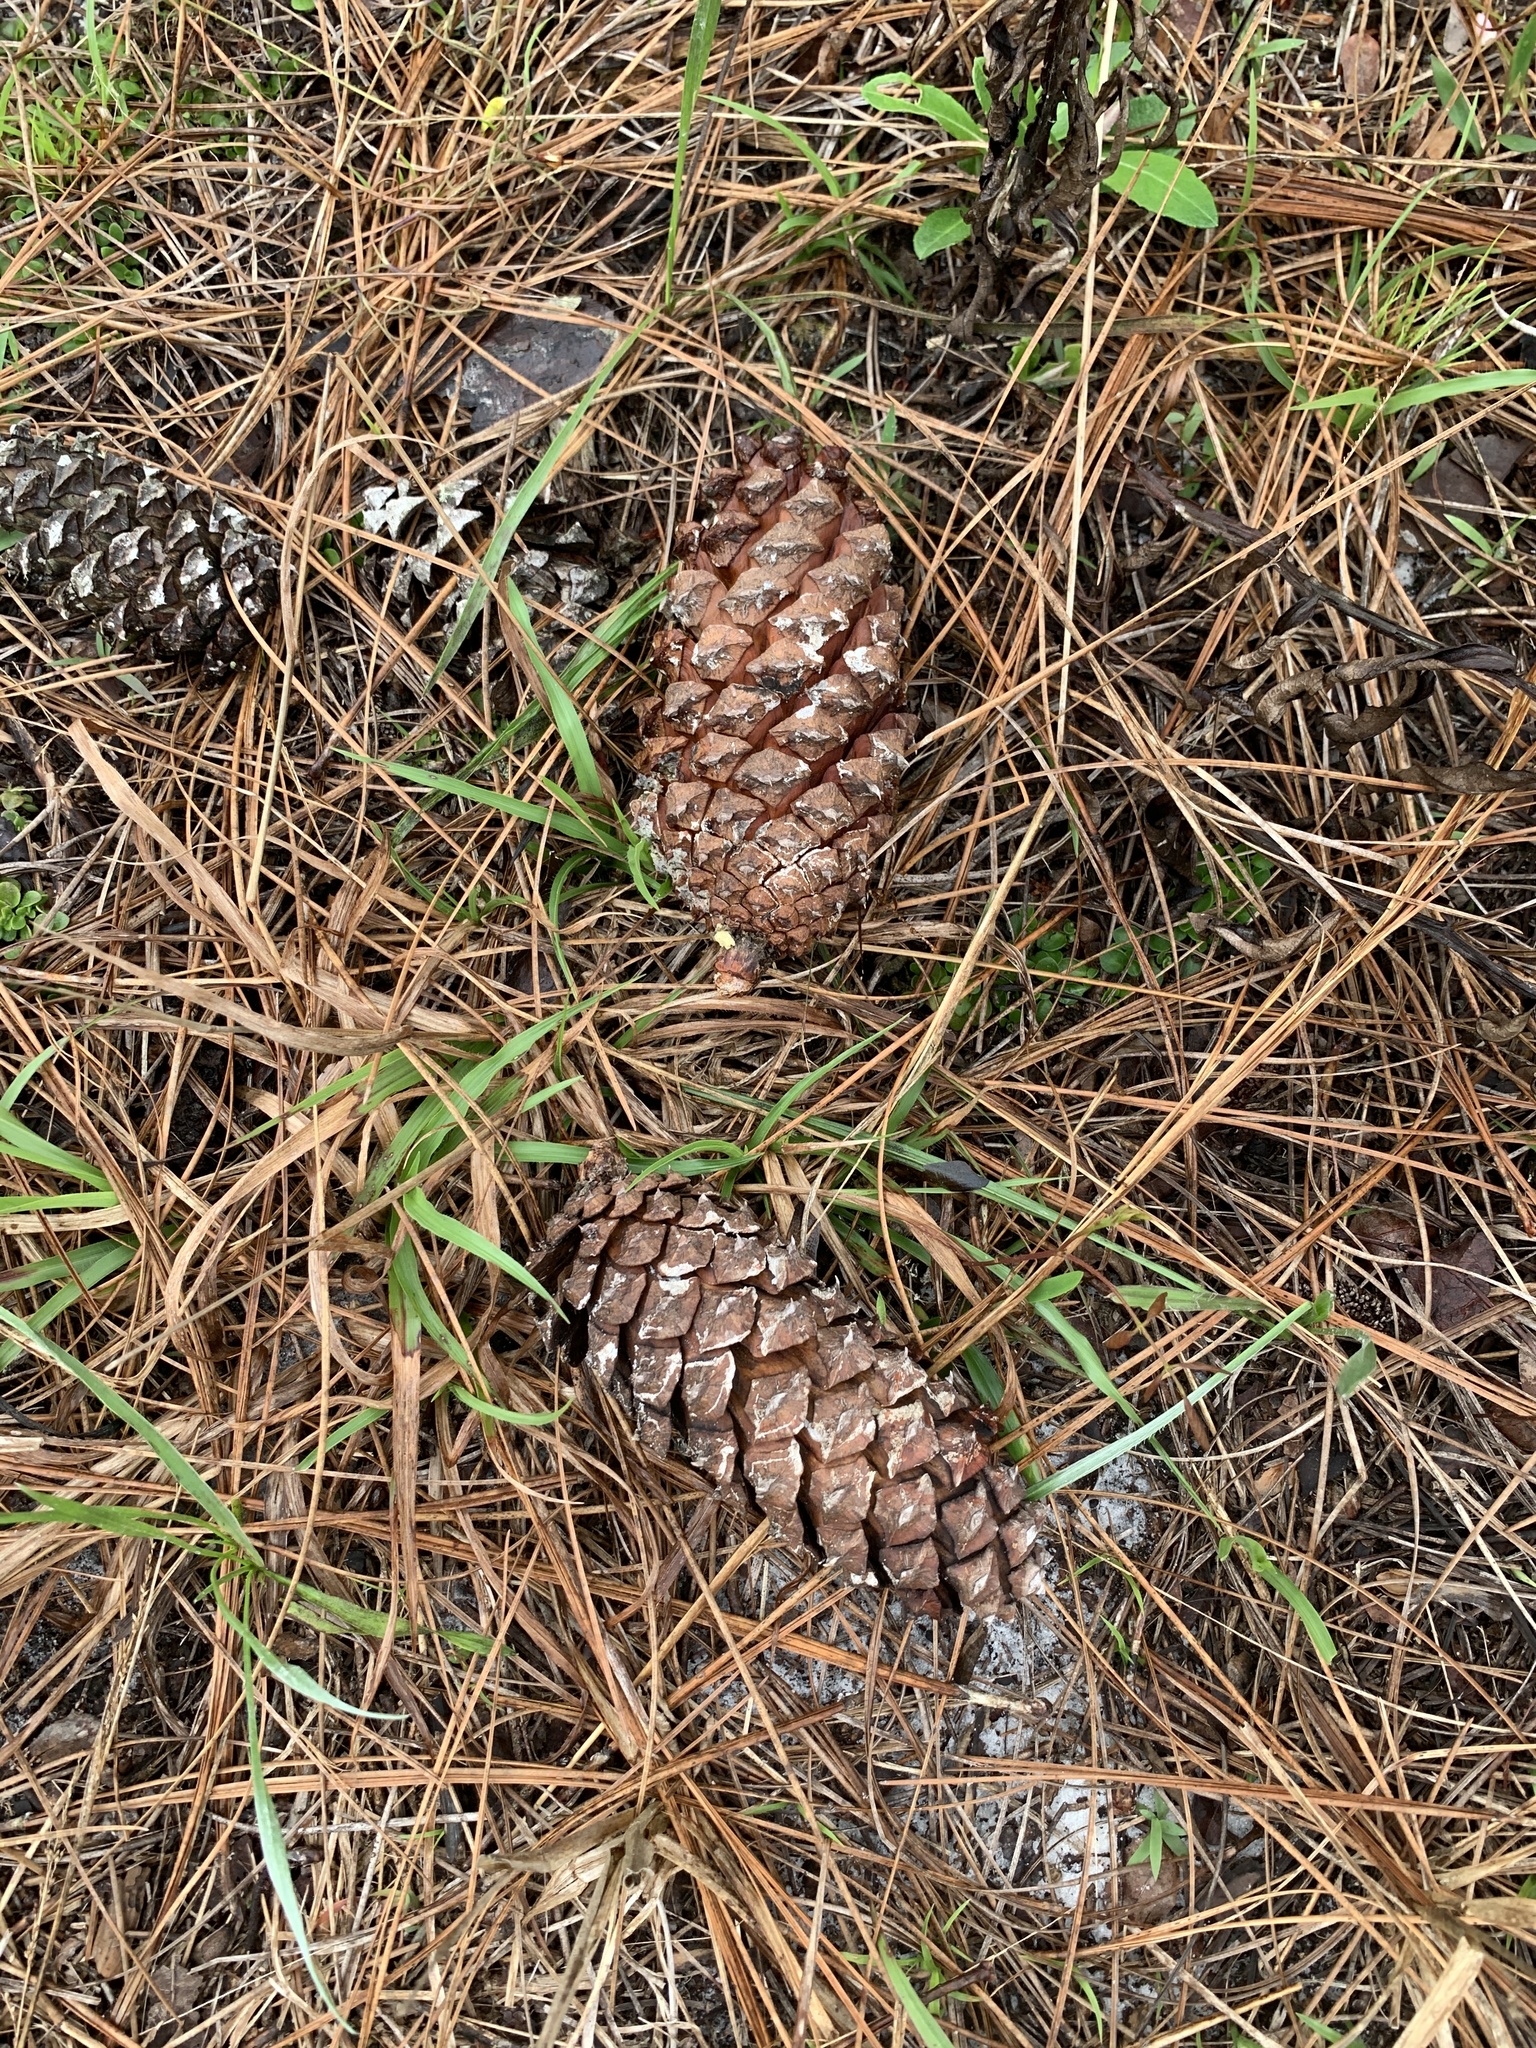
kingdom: Plantae
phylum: Tracheophyta
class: Pinopsida
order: Pinales
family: Pinaceae
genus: Pinus
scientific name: Pinus palustris
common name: Longleaf pine
